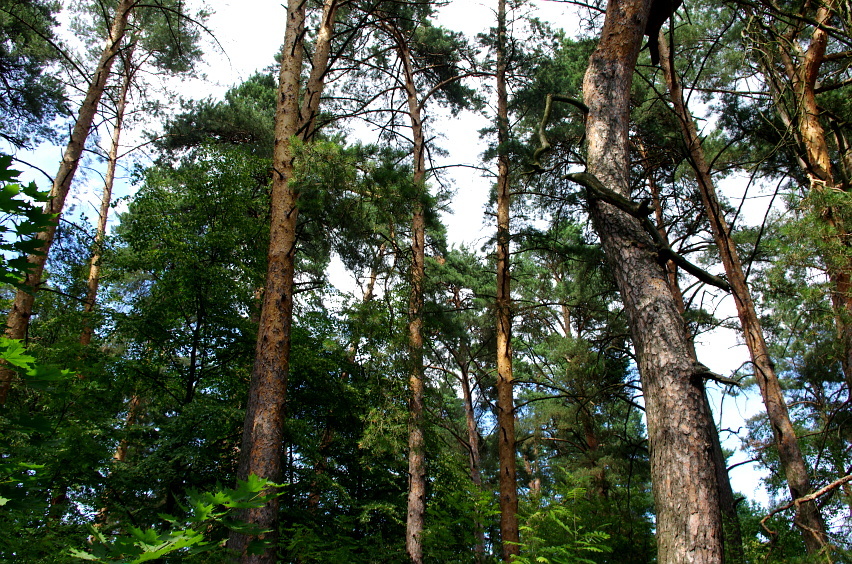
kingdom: Plantae
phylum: Tracheophyta
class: Pinopsida
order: Pinales
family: Pinaceae
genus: Pinus
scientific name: Pinus sylvestris
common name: Scots pine
